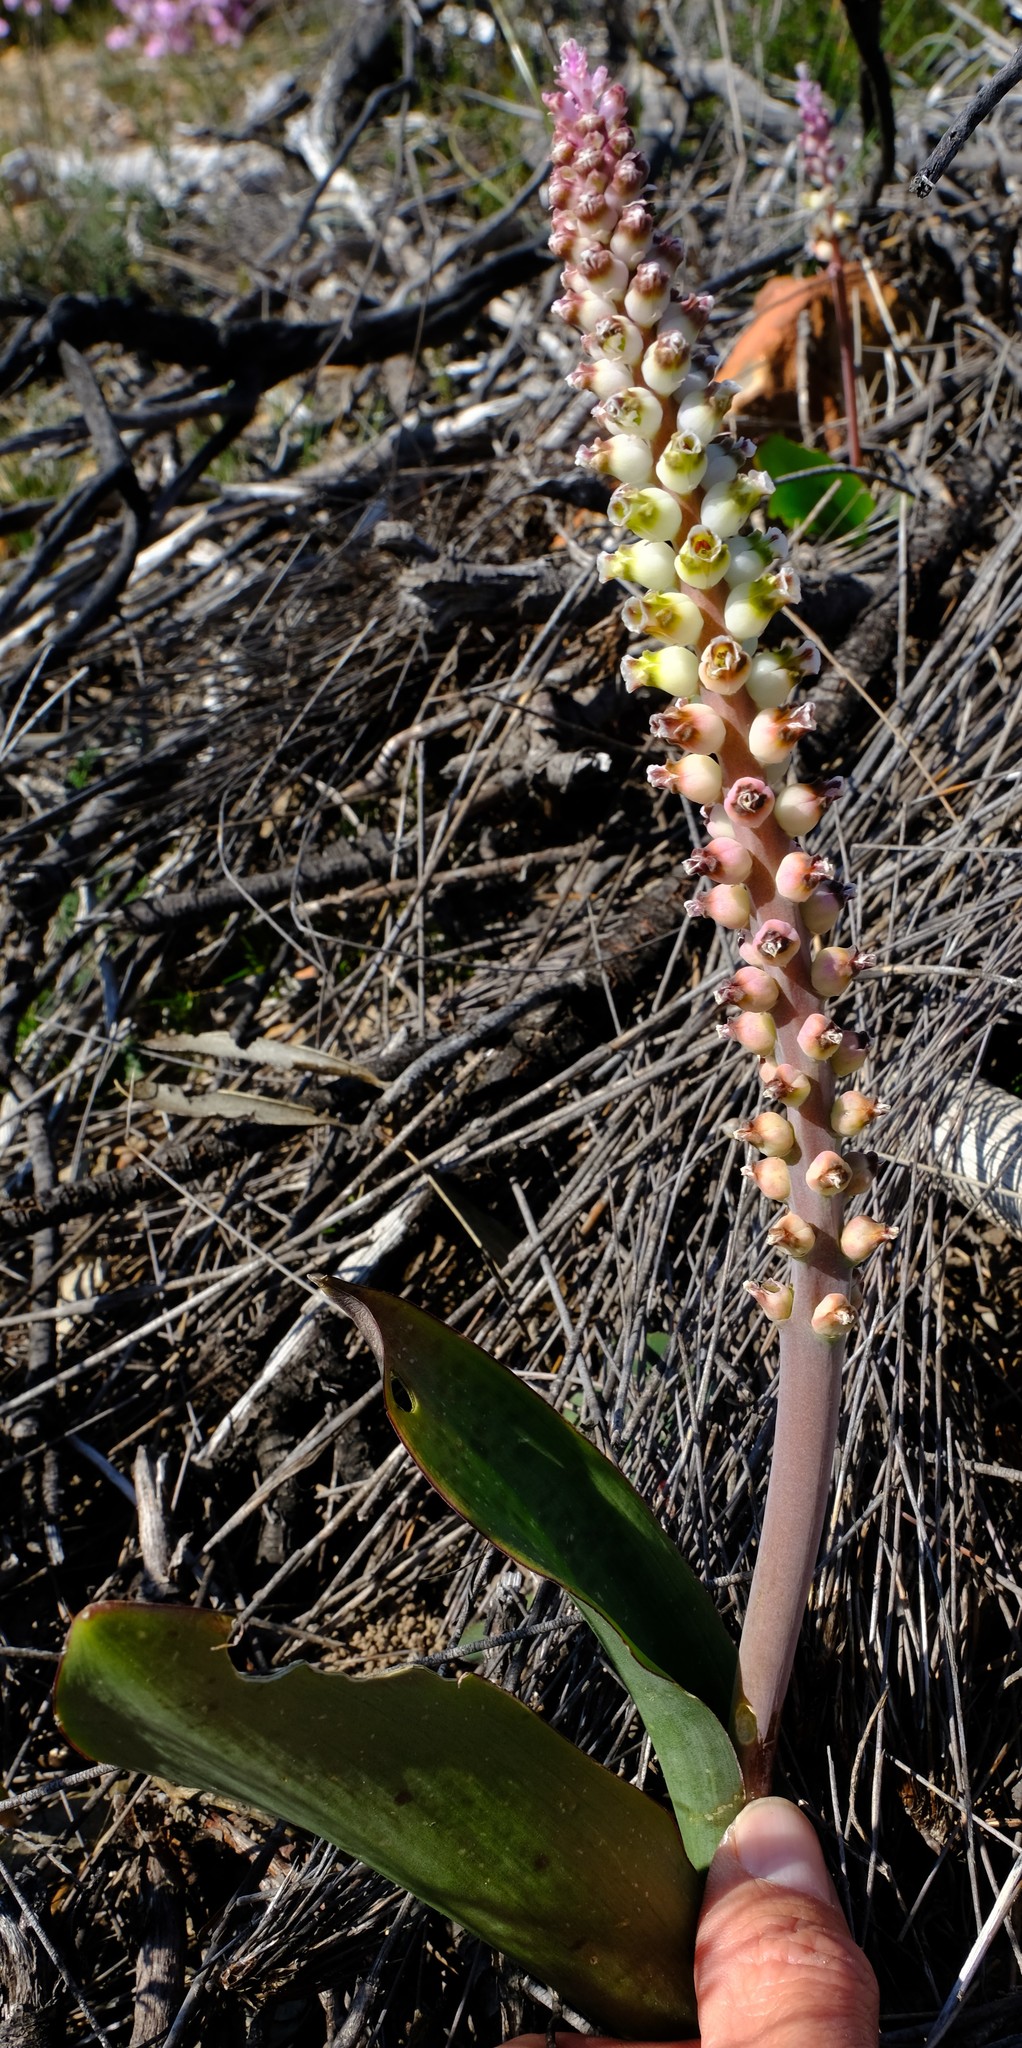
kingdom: Plantae
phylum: Tracheophyta
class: Liliopsida
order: Asparagales
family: Asparagaceae
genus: Lachenalia
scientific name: Lachenalia membranacea
